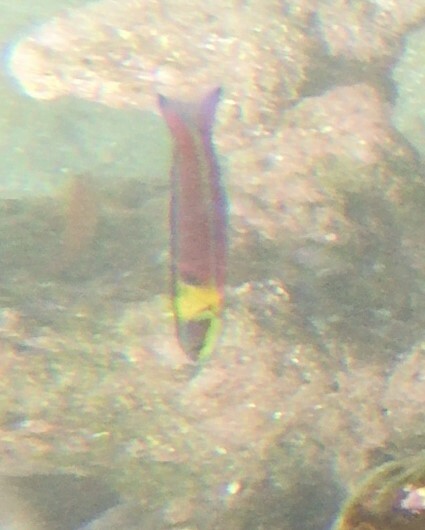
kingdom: Animalia
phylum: Chordata
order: Perciformes
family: Labridae
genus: Thalassoma
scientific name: Thalassoma lucasanum
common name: Cortez rainbow wrasse
